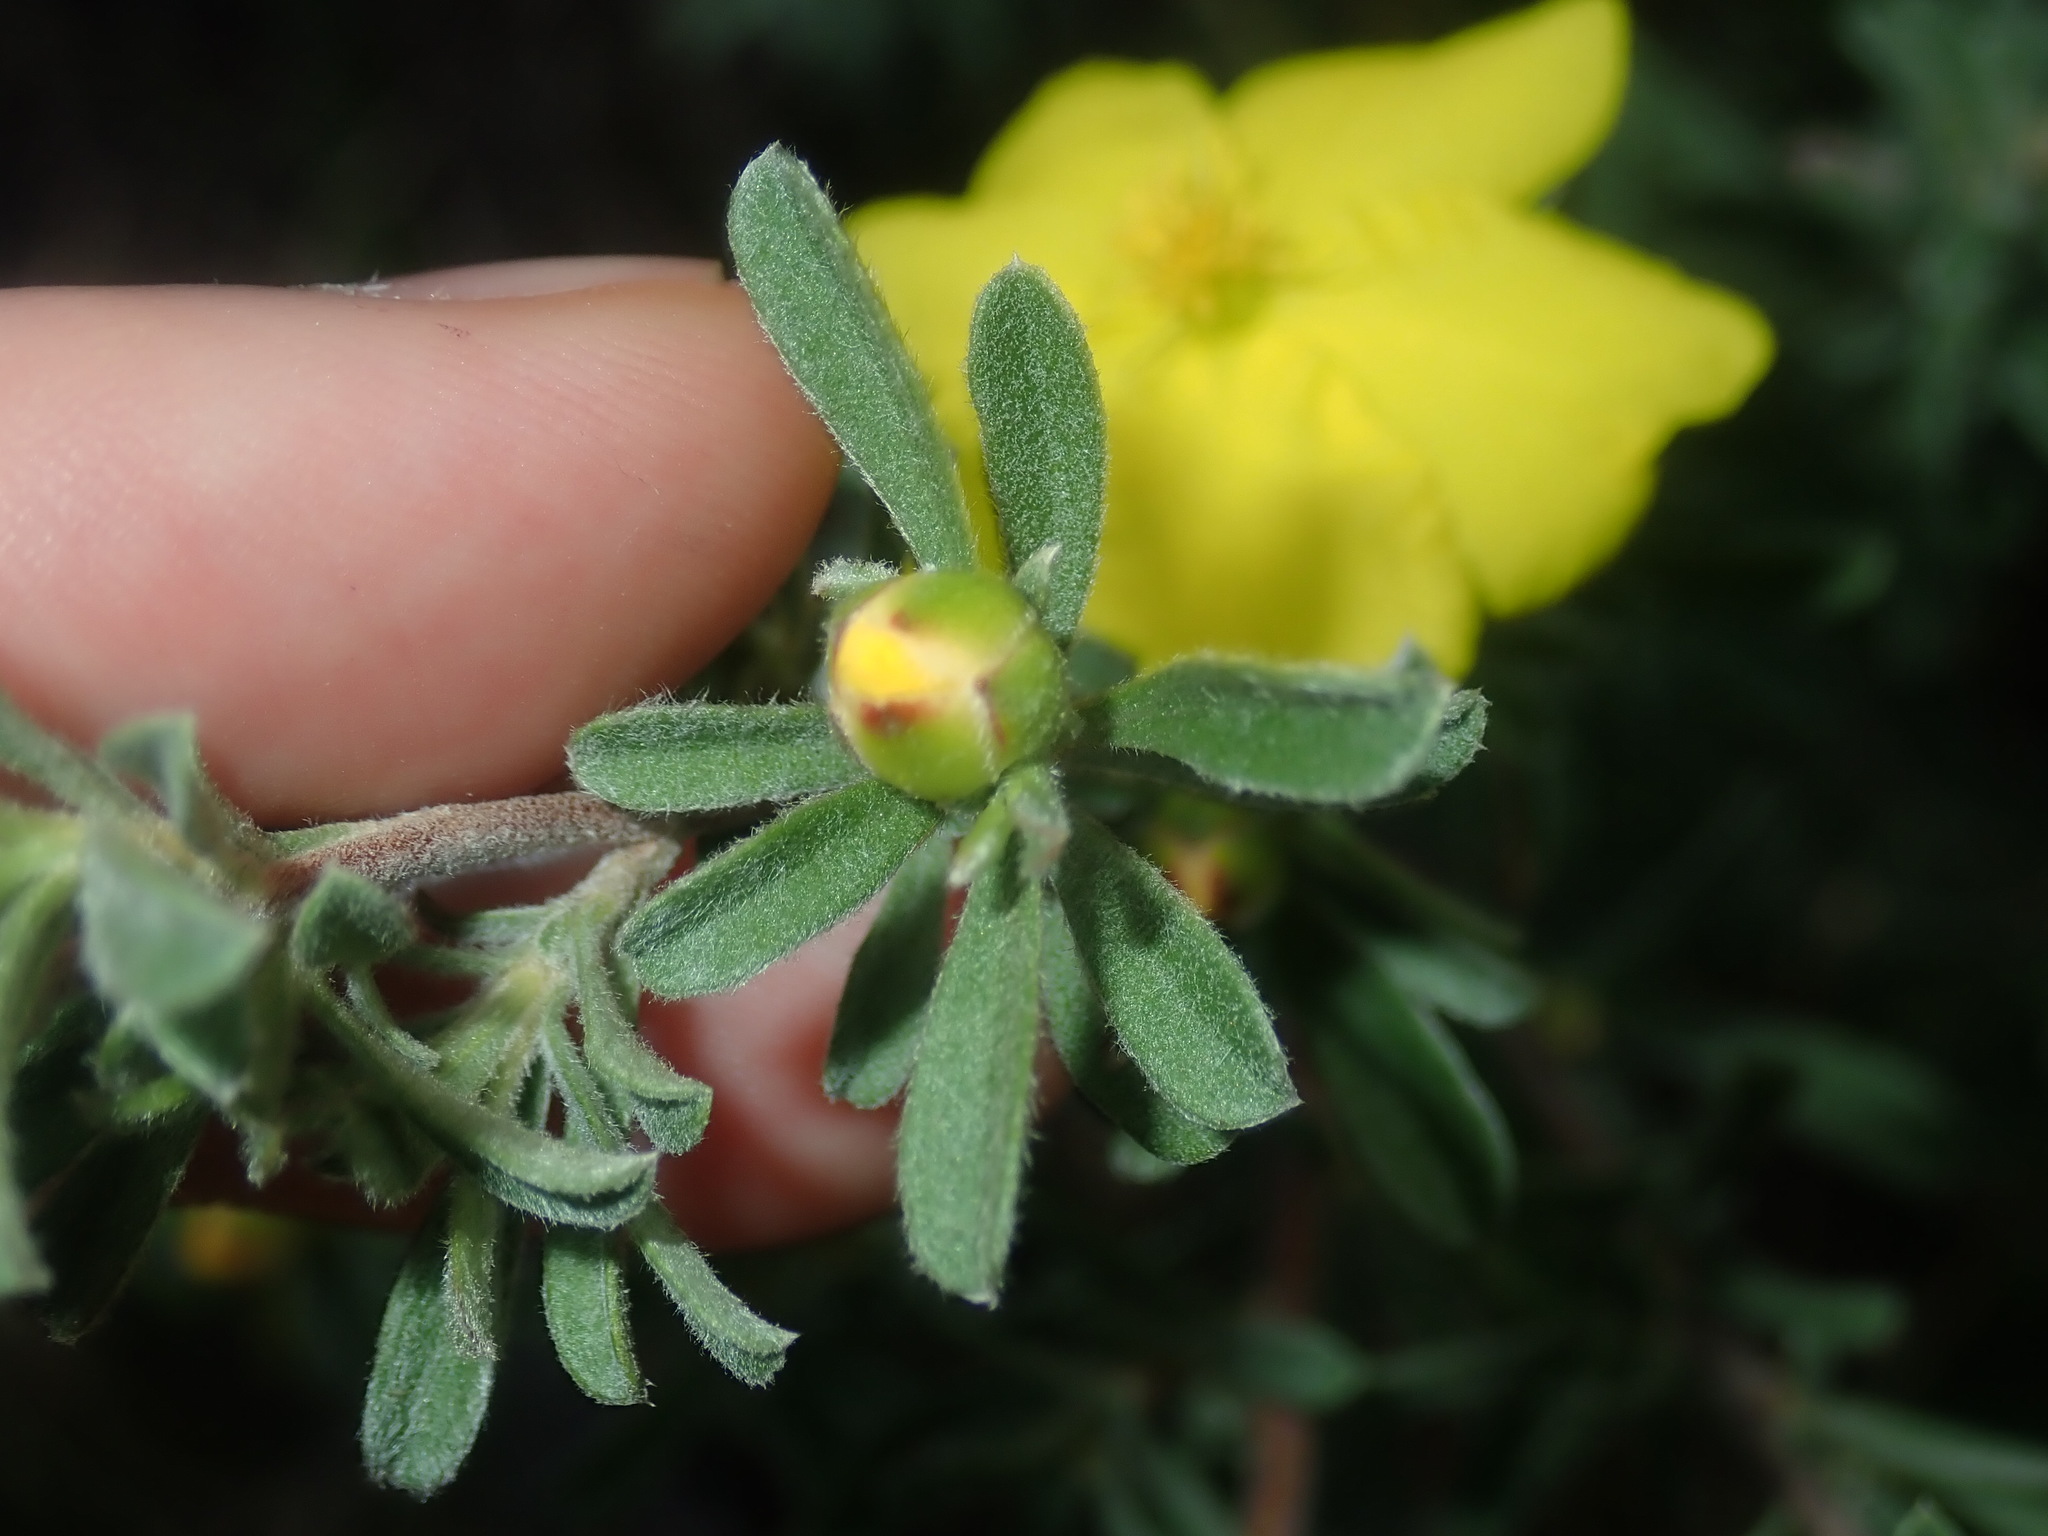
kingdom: Plantae
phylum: Tracheophyta
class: Magnoliopsida
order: Dilleniales
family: Dilleniaceae
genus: Hibbertia
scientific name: Hibbertia obtusifolia
